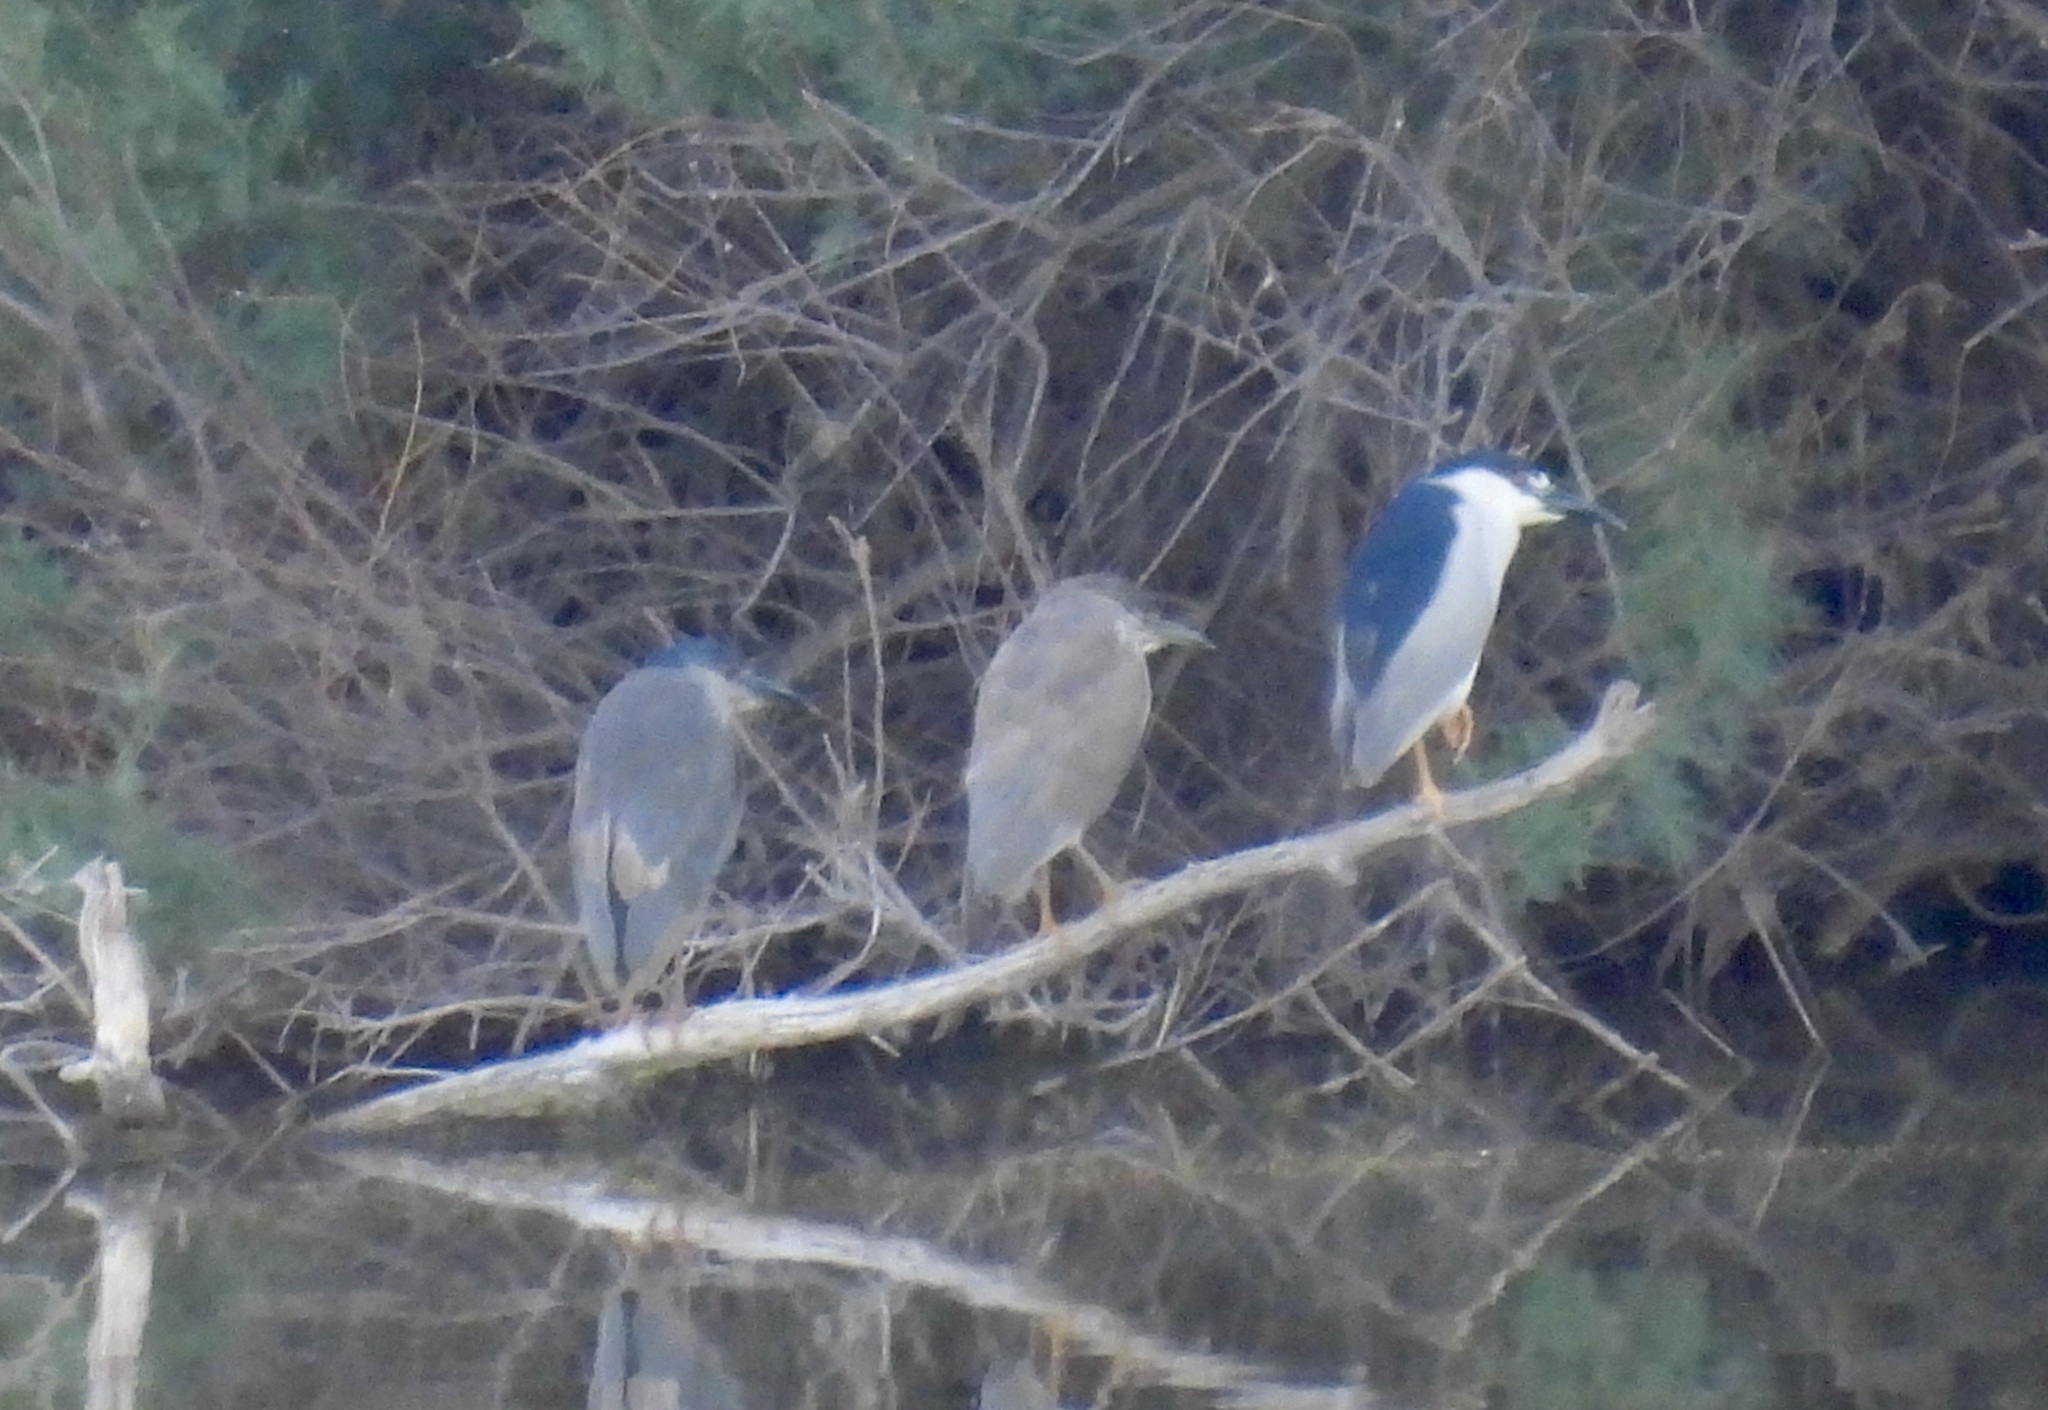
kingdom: Animalia
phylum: Chordata
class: Aves
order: Pelecaniformes
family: Ardeidae
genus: Nycticorax
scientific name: Nycticorax nycticorax
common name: Black-crowned night heron
